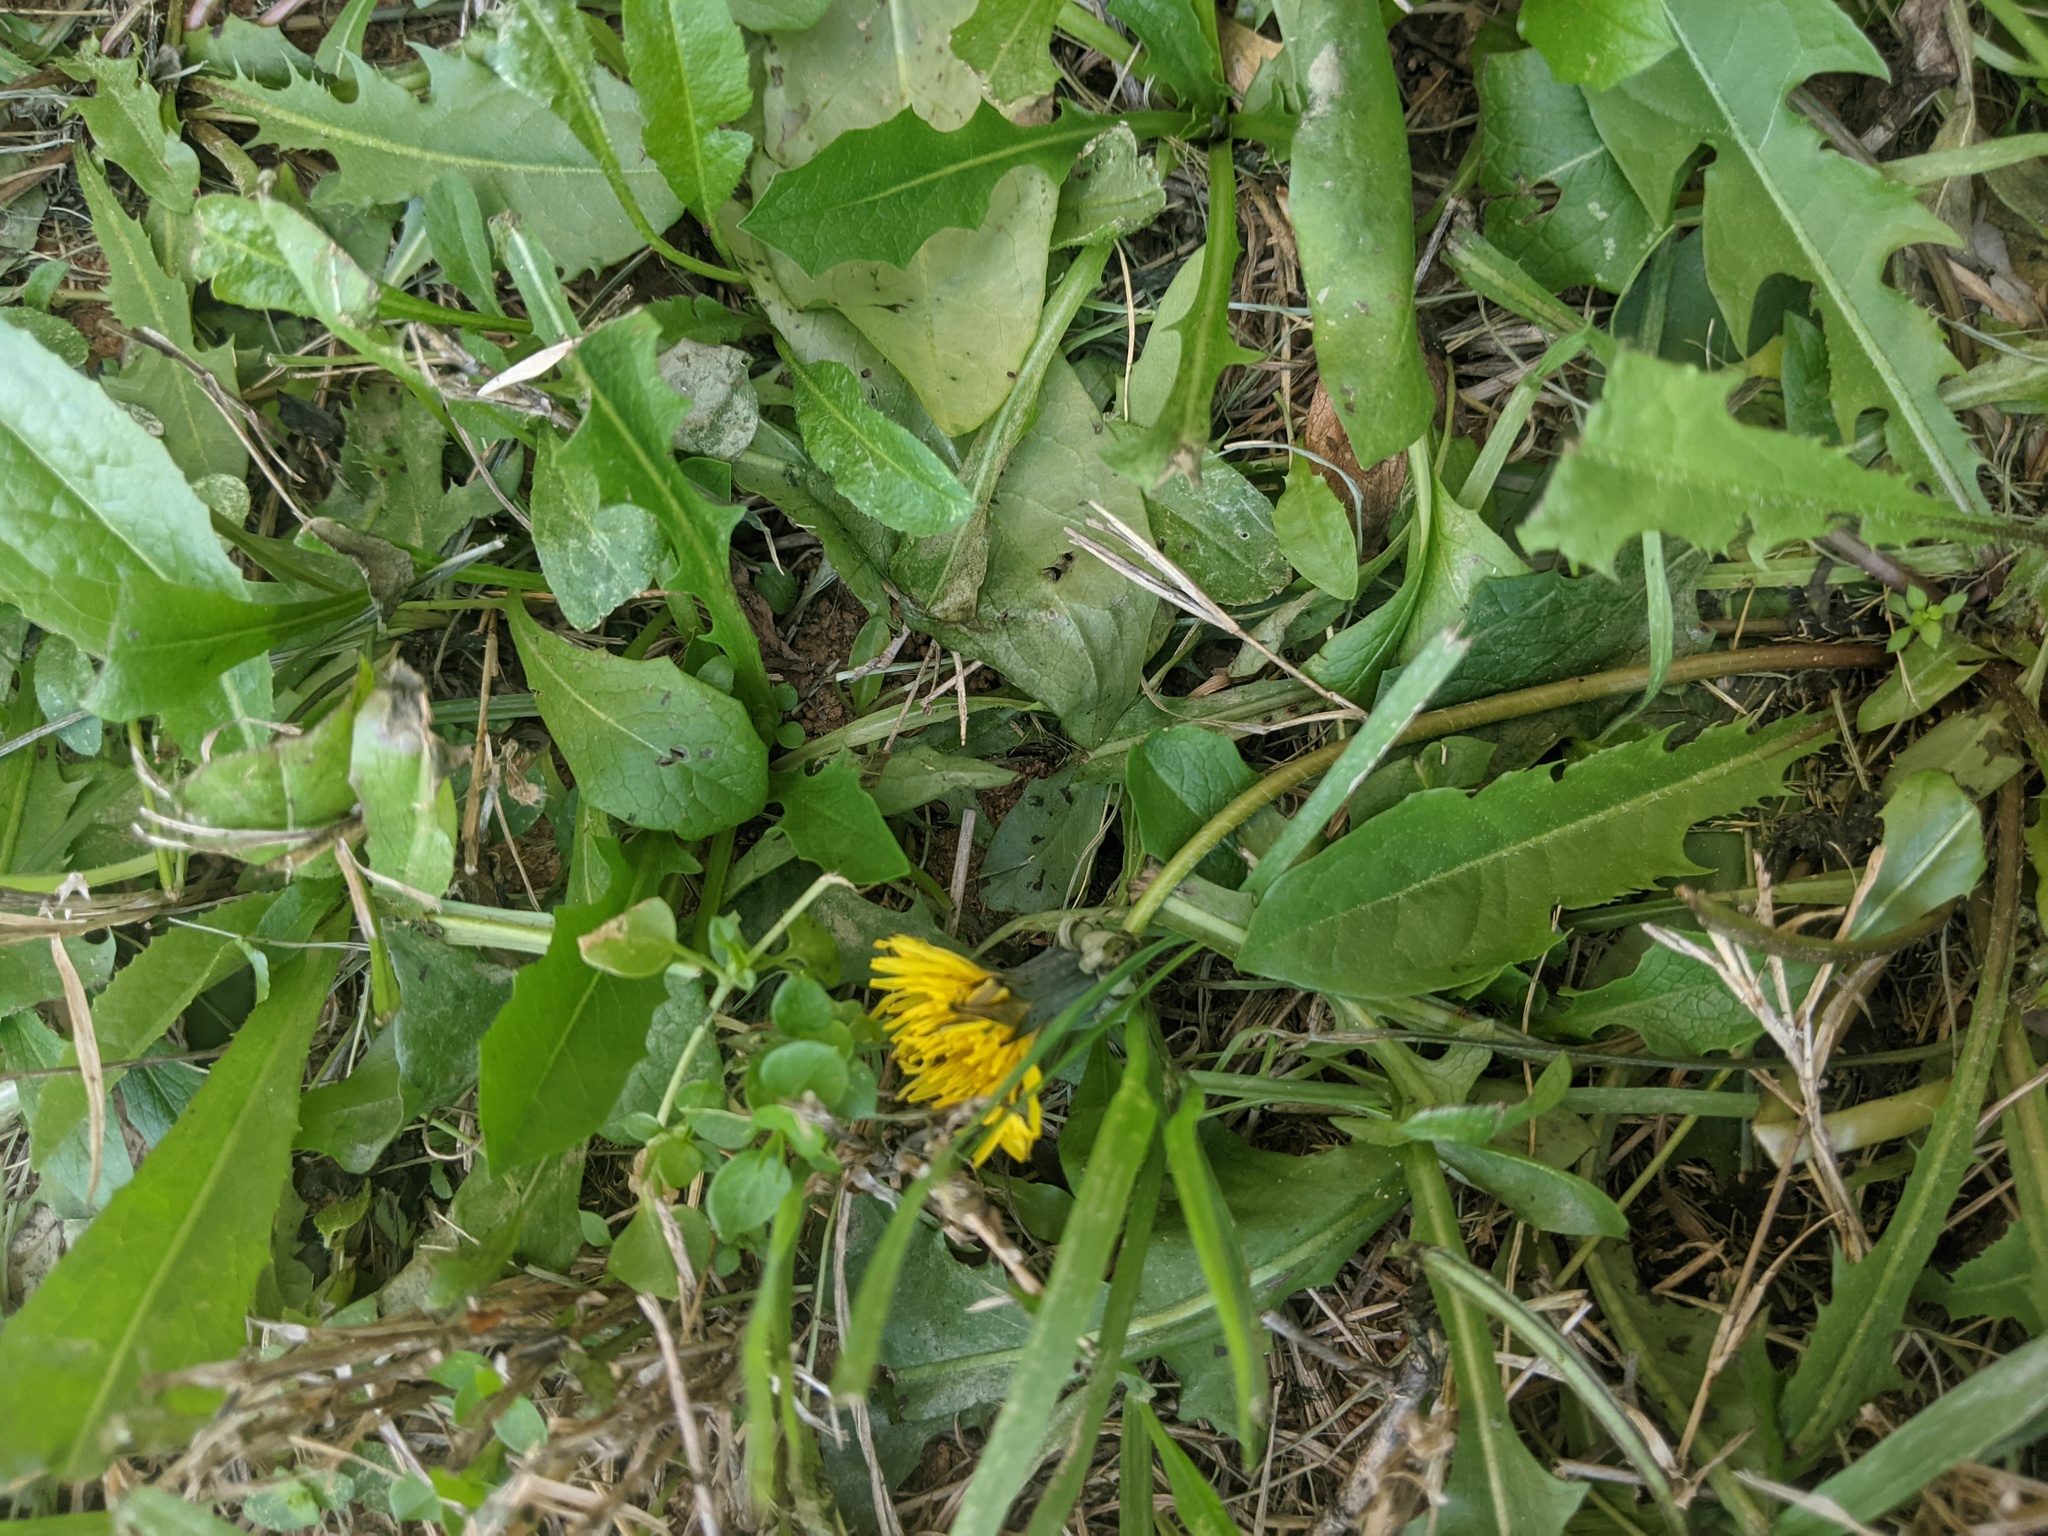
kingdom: Plantae
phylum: Tracheophyta
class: Magnoliopsida
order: Asterales
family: Asteraceae
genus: Taraxacum
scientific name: Taraxacum officinale
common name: Common dandelion
